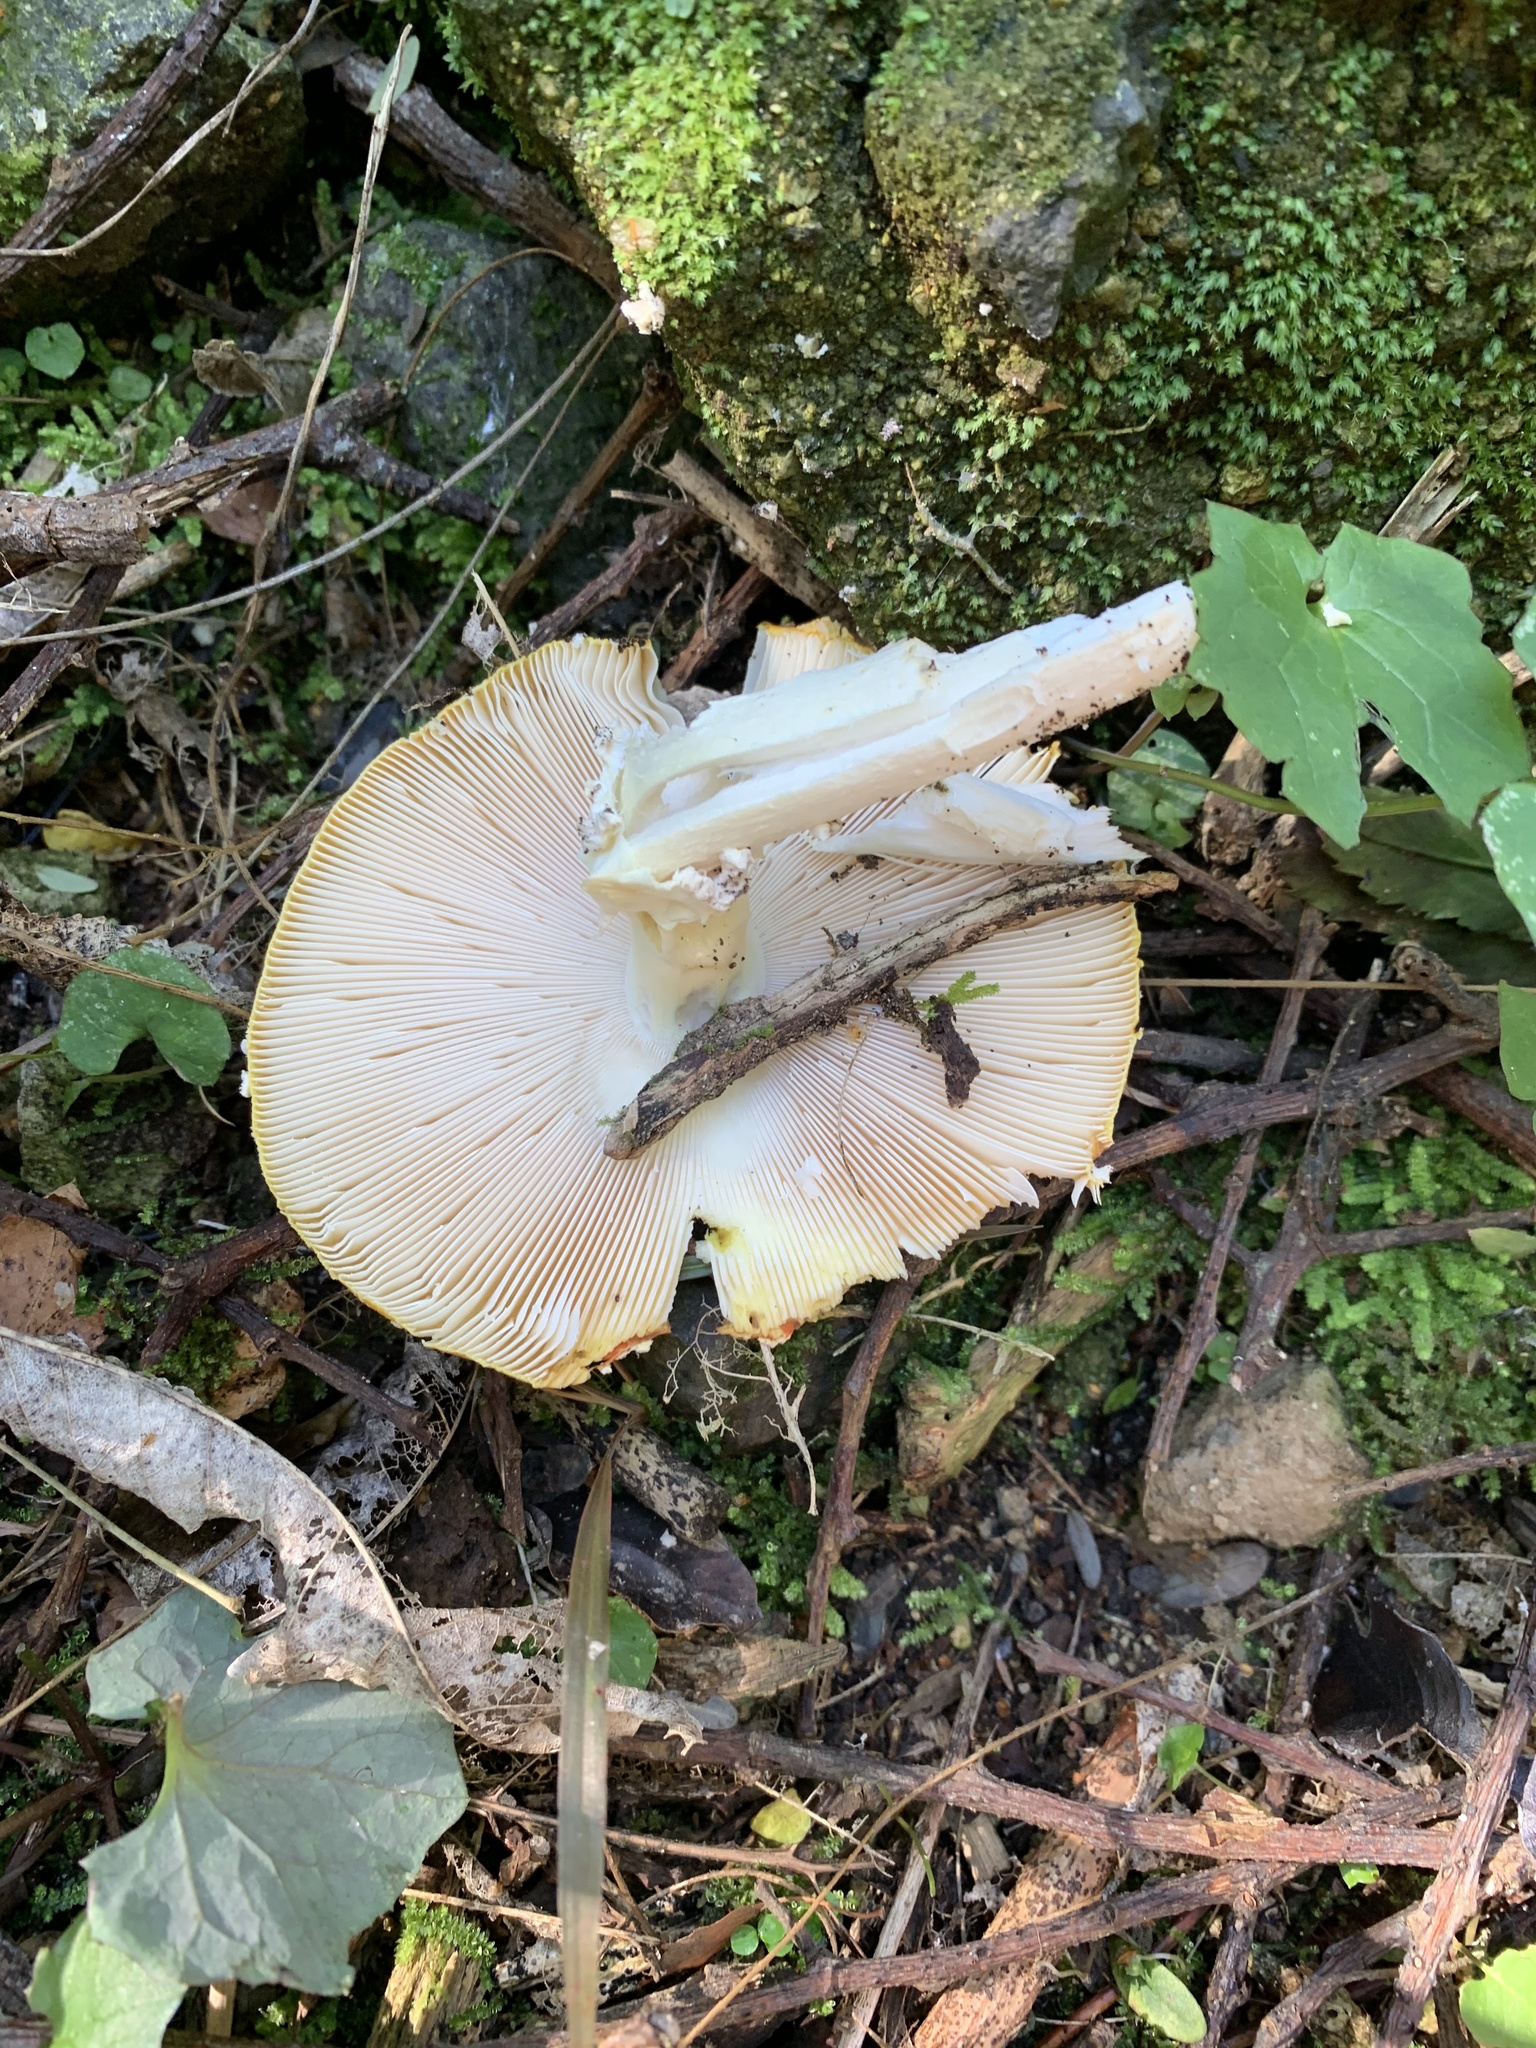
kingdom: Fungi
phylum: Basidiomycota
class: Agaricomycetes
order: Agaricales
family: Amanitaceae
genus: Amanita
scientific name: Amanita muscaria
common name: Fly agaric
